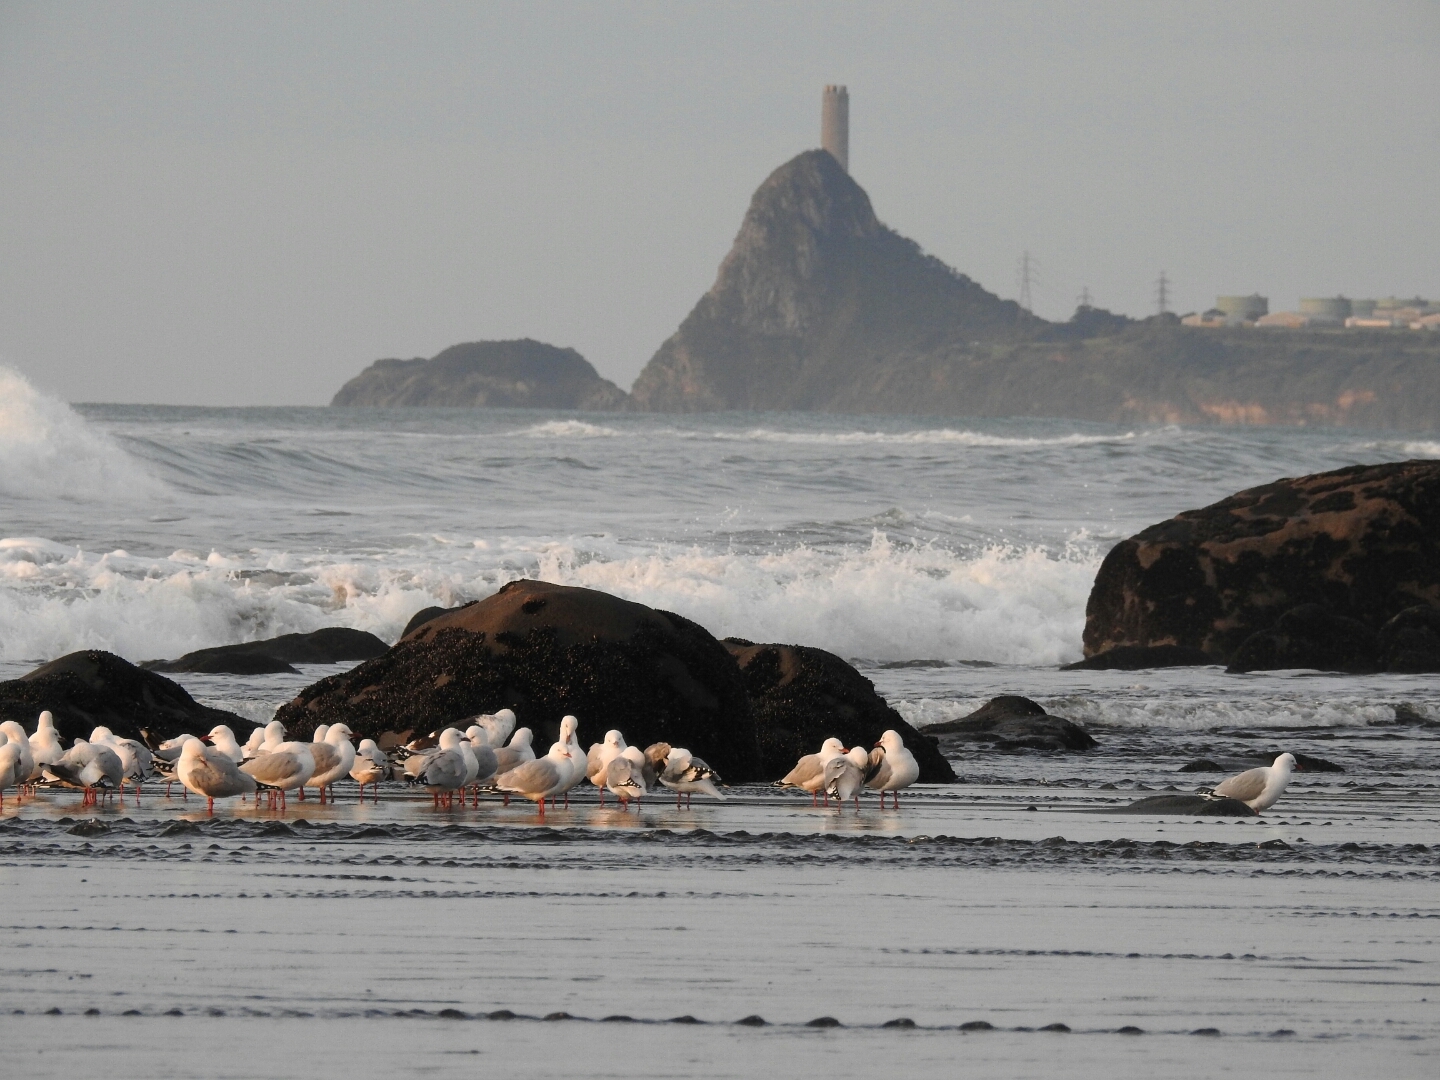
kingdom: Animalia
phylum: Chordata
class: Aves
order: Charadriiformes
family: Laridae
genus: Chroicocephalus
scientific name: Chroicocephalus novaehollandiae
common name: Silver gull
